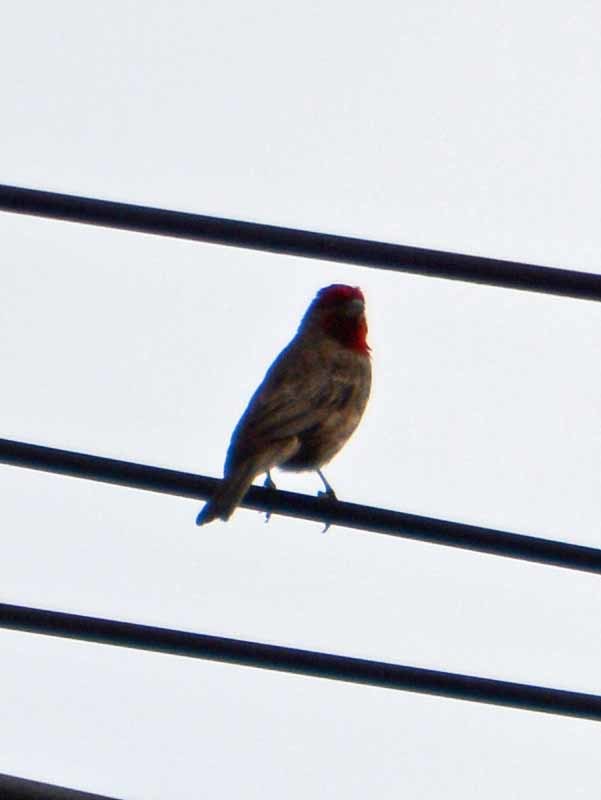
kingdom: Animalia
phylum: Chordata
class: Aves
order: Passeriformes
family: Fringillidae
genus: Haemorhous
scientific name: Haemorhous mexicanus
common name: House finch
